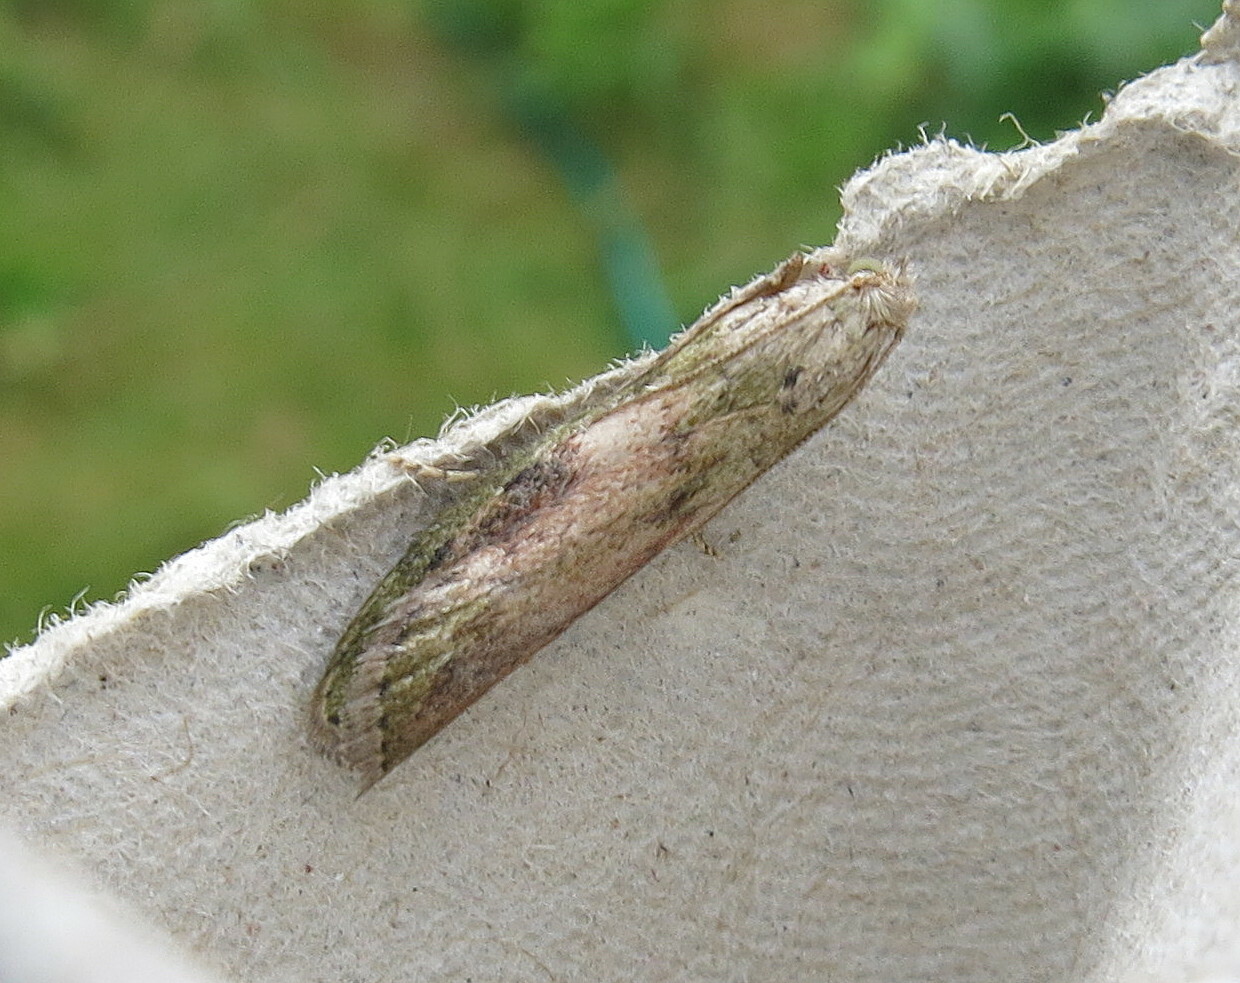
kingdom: Animalia
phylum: Arthropoda
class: Insecta
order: Lepidoptera
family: Pyralidae
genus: Aphomia
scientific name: Aphomia sociella
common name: Bee moth
